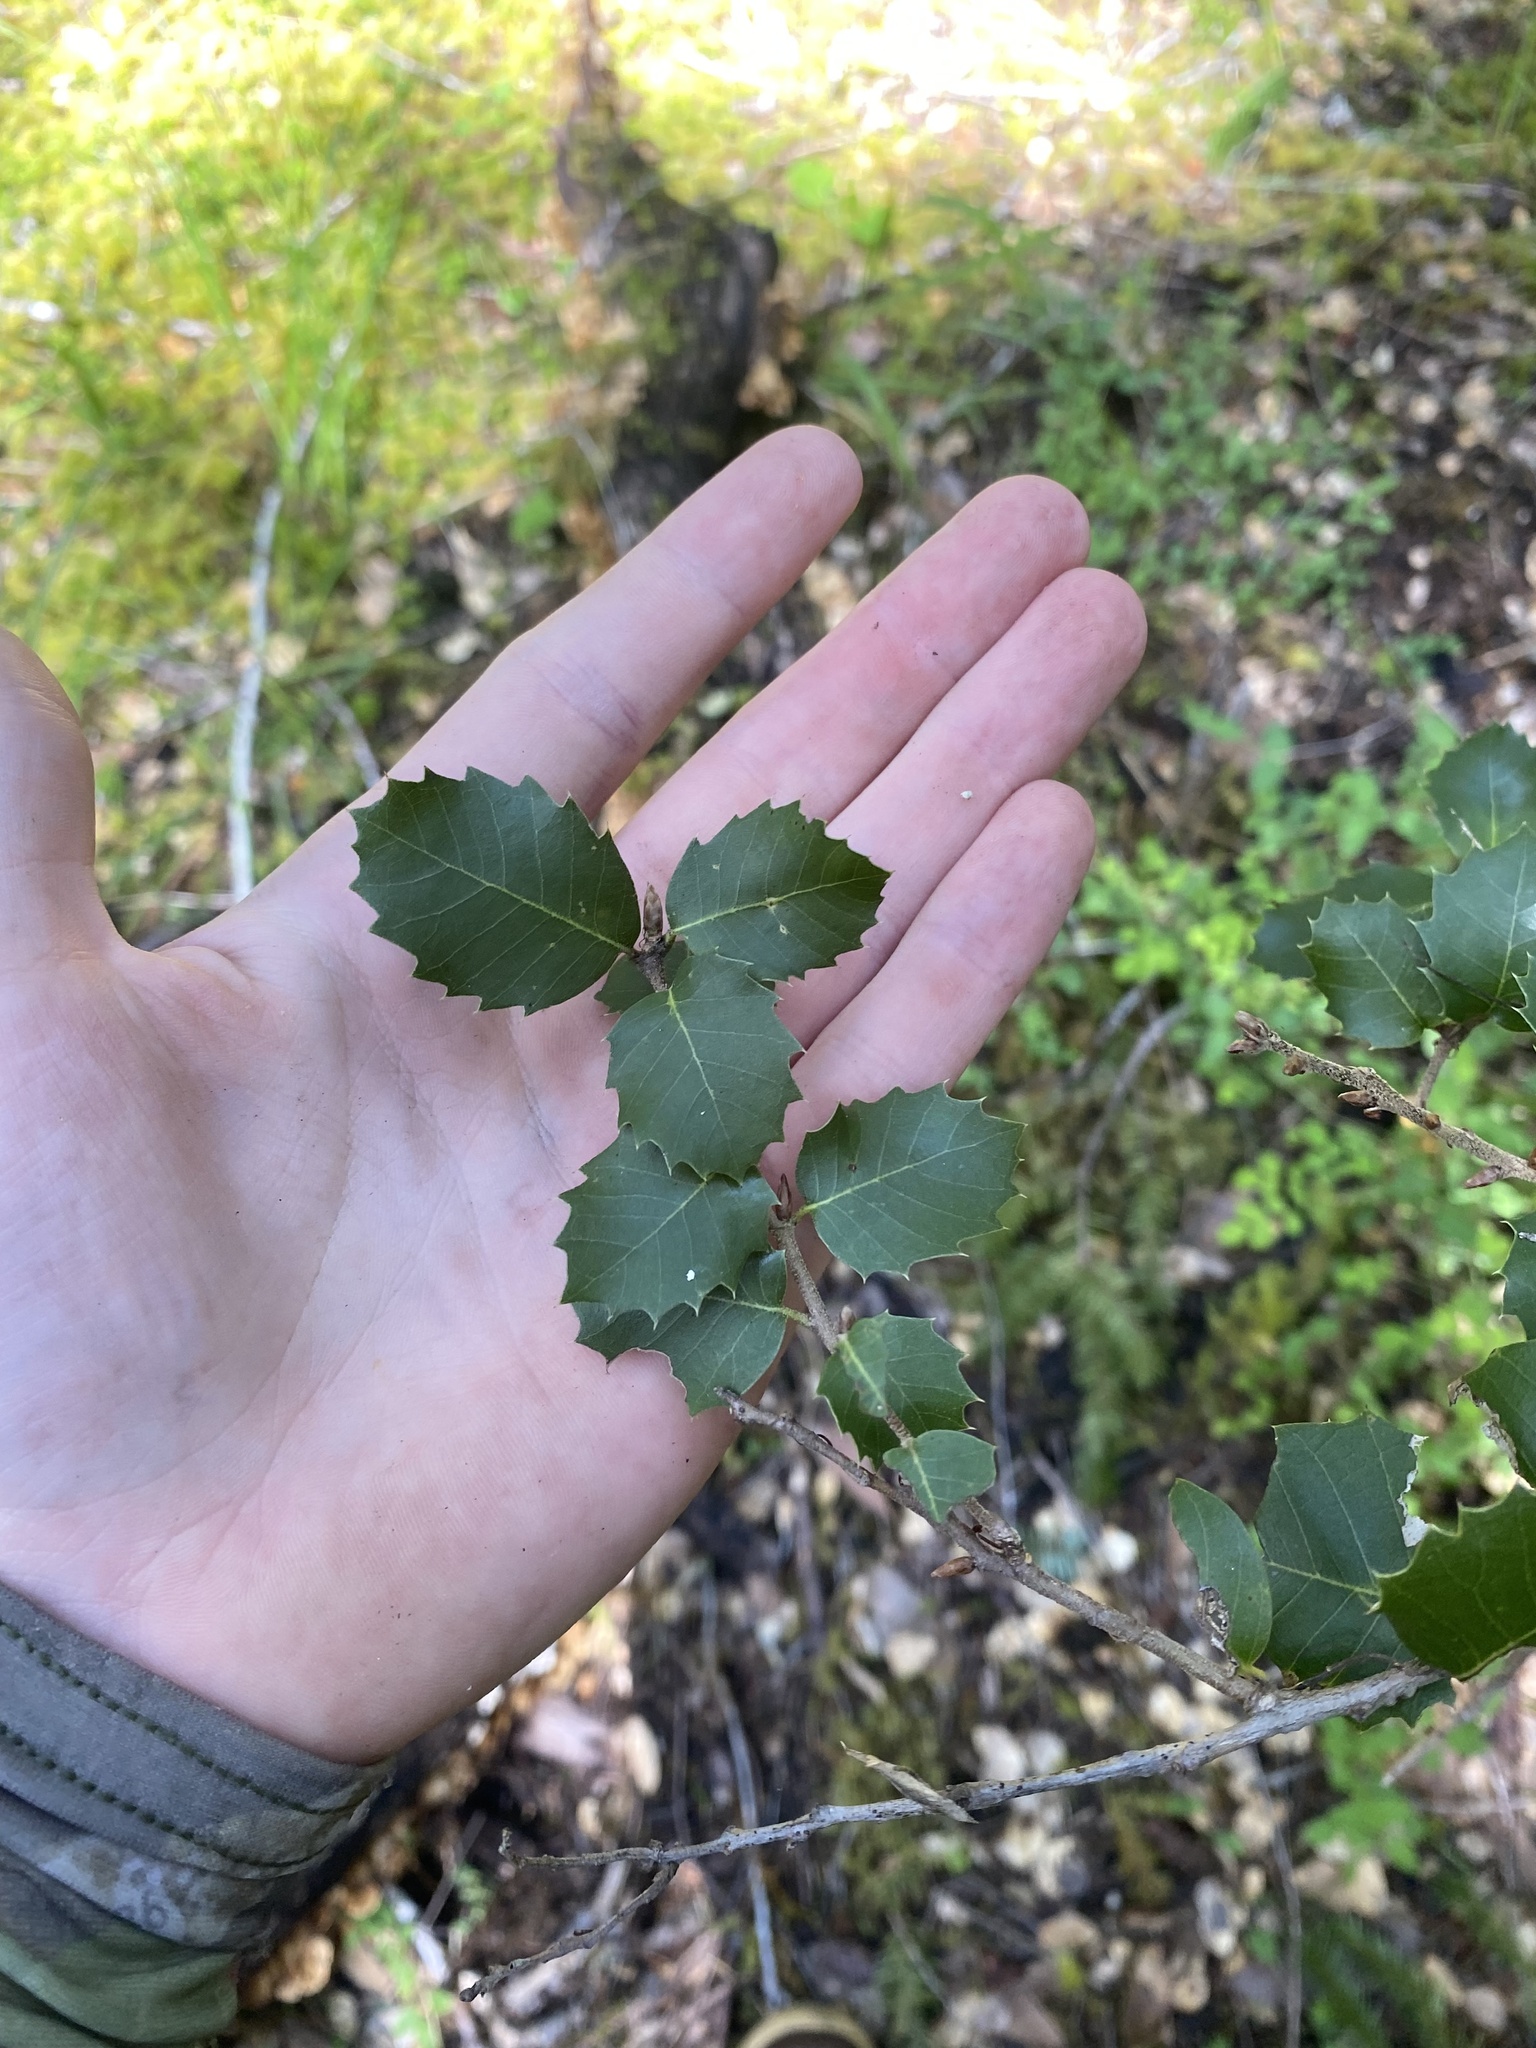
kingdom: Plantae
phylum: Tracheophyta
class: Magnoliopsida
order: Fagales
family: Fagaceae
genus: Quercus
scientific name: Quercus chrysolepis
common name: Canyon live oak
